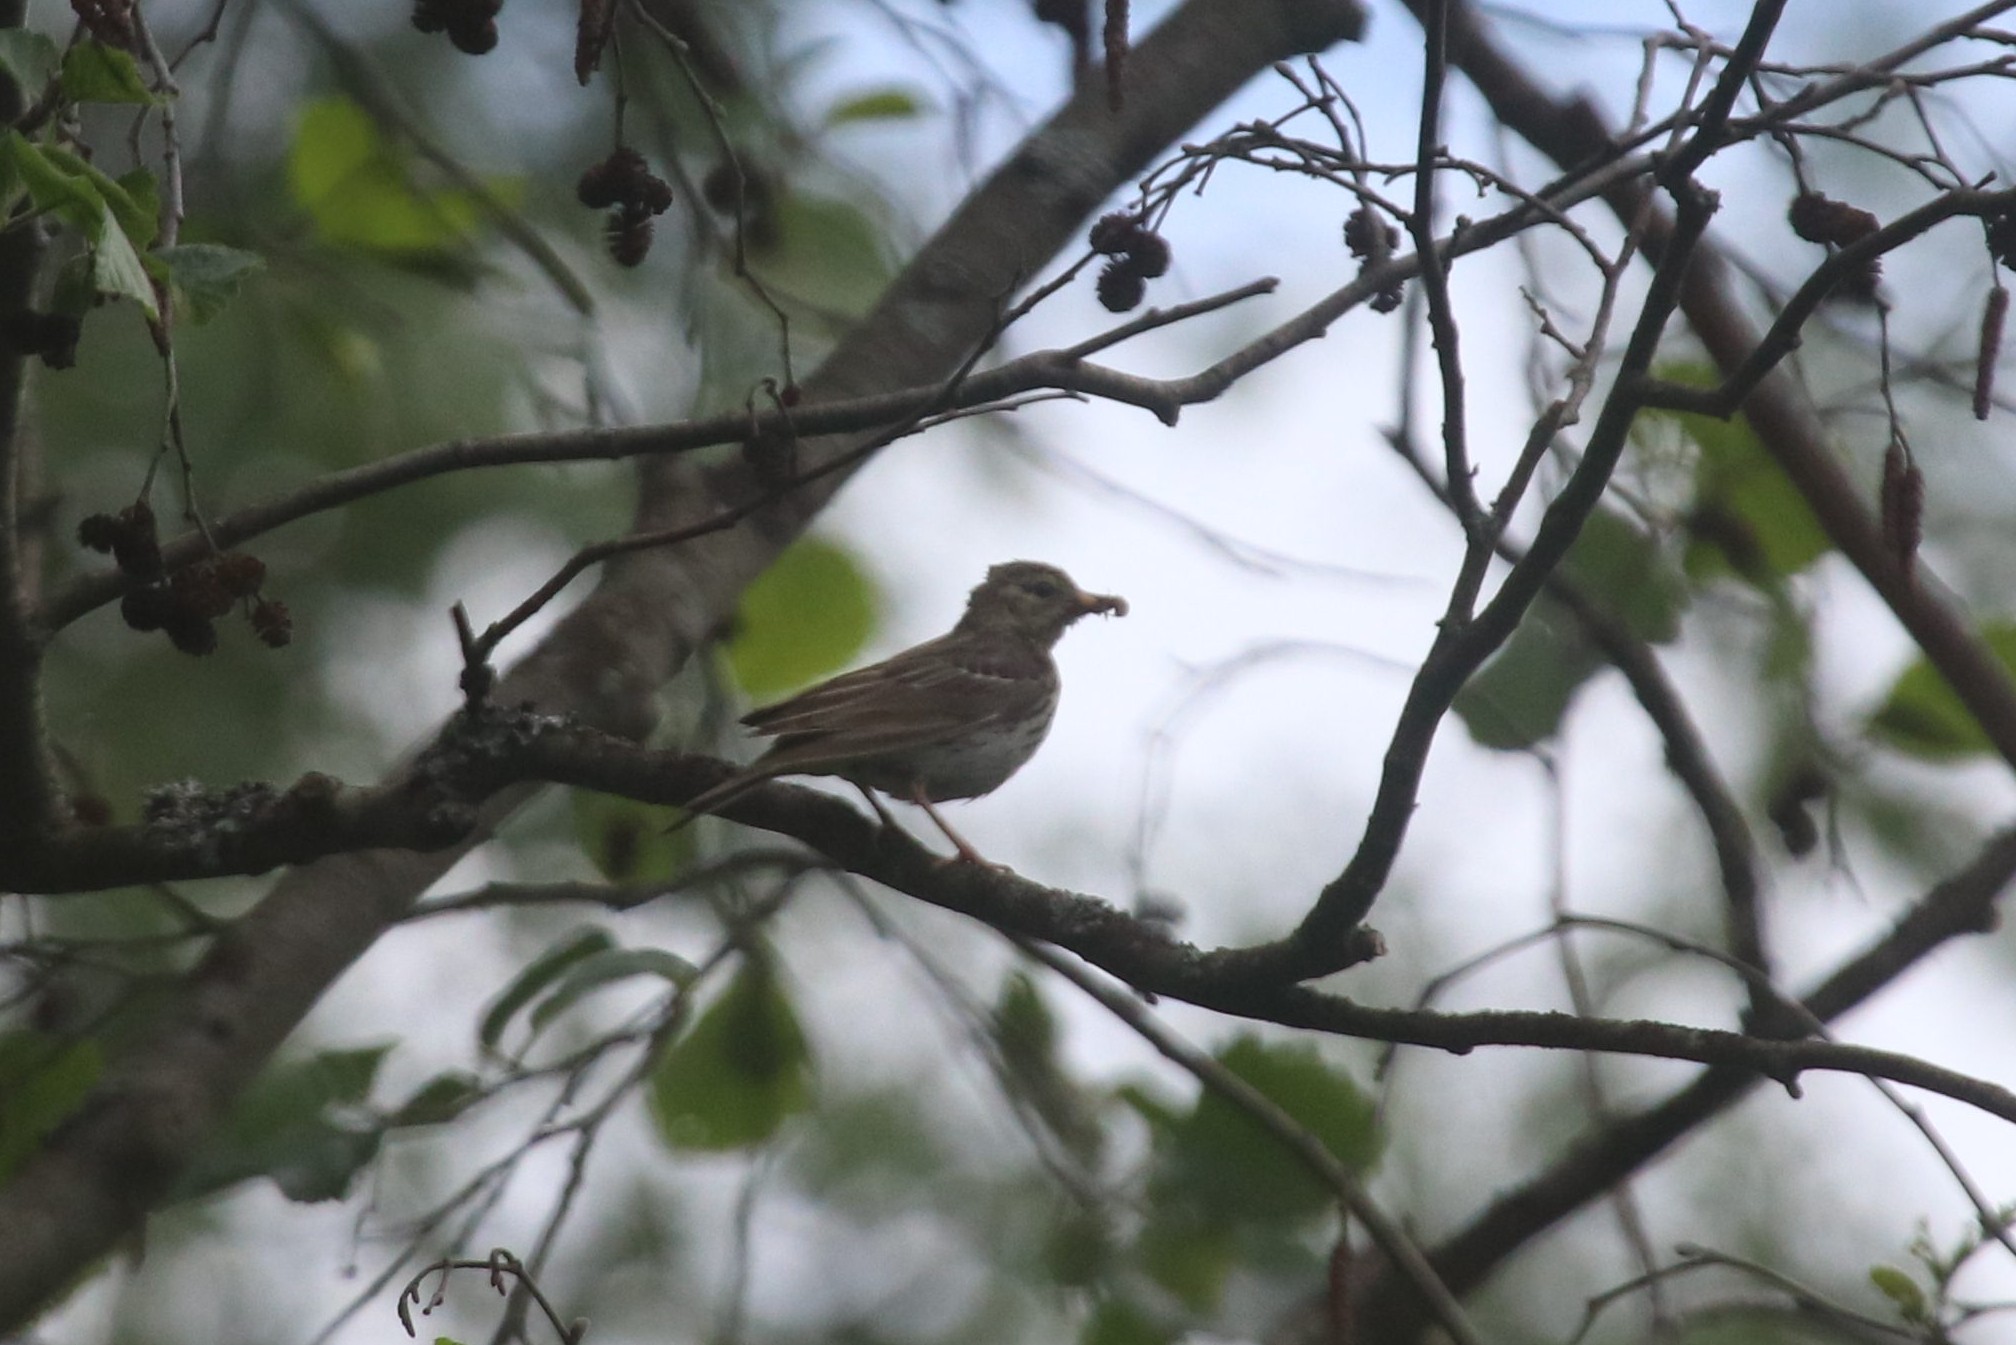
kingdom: Animalia
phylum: Chordata
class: Aves
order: Passeriformes
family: Motacillidae
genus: Anthus
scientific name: Anthus trivialis
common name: Tree pipit
